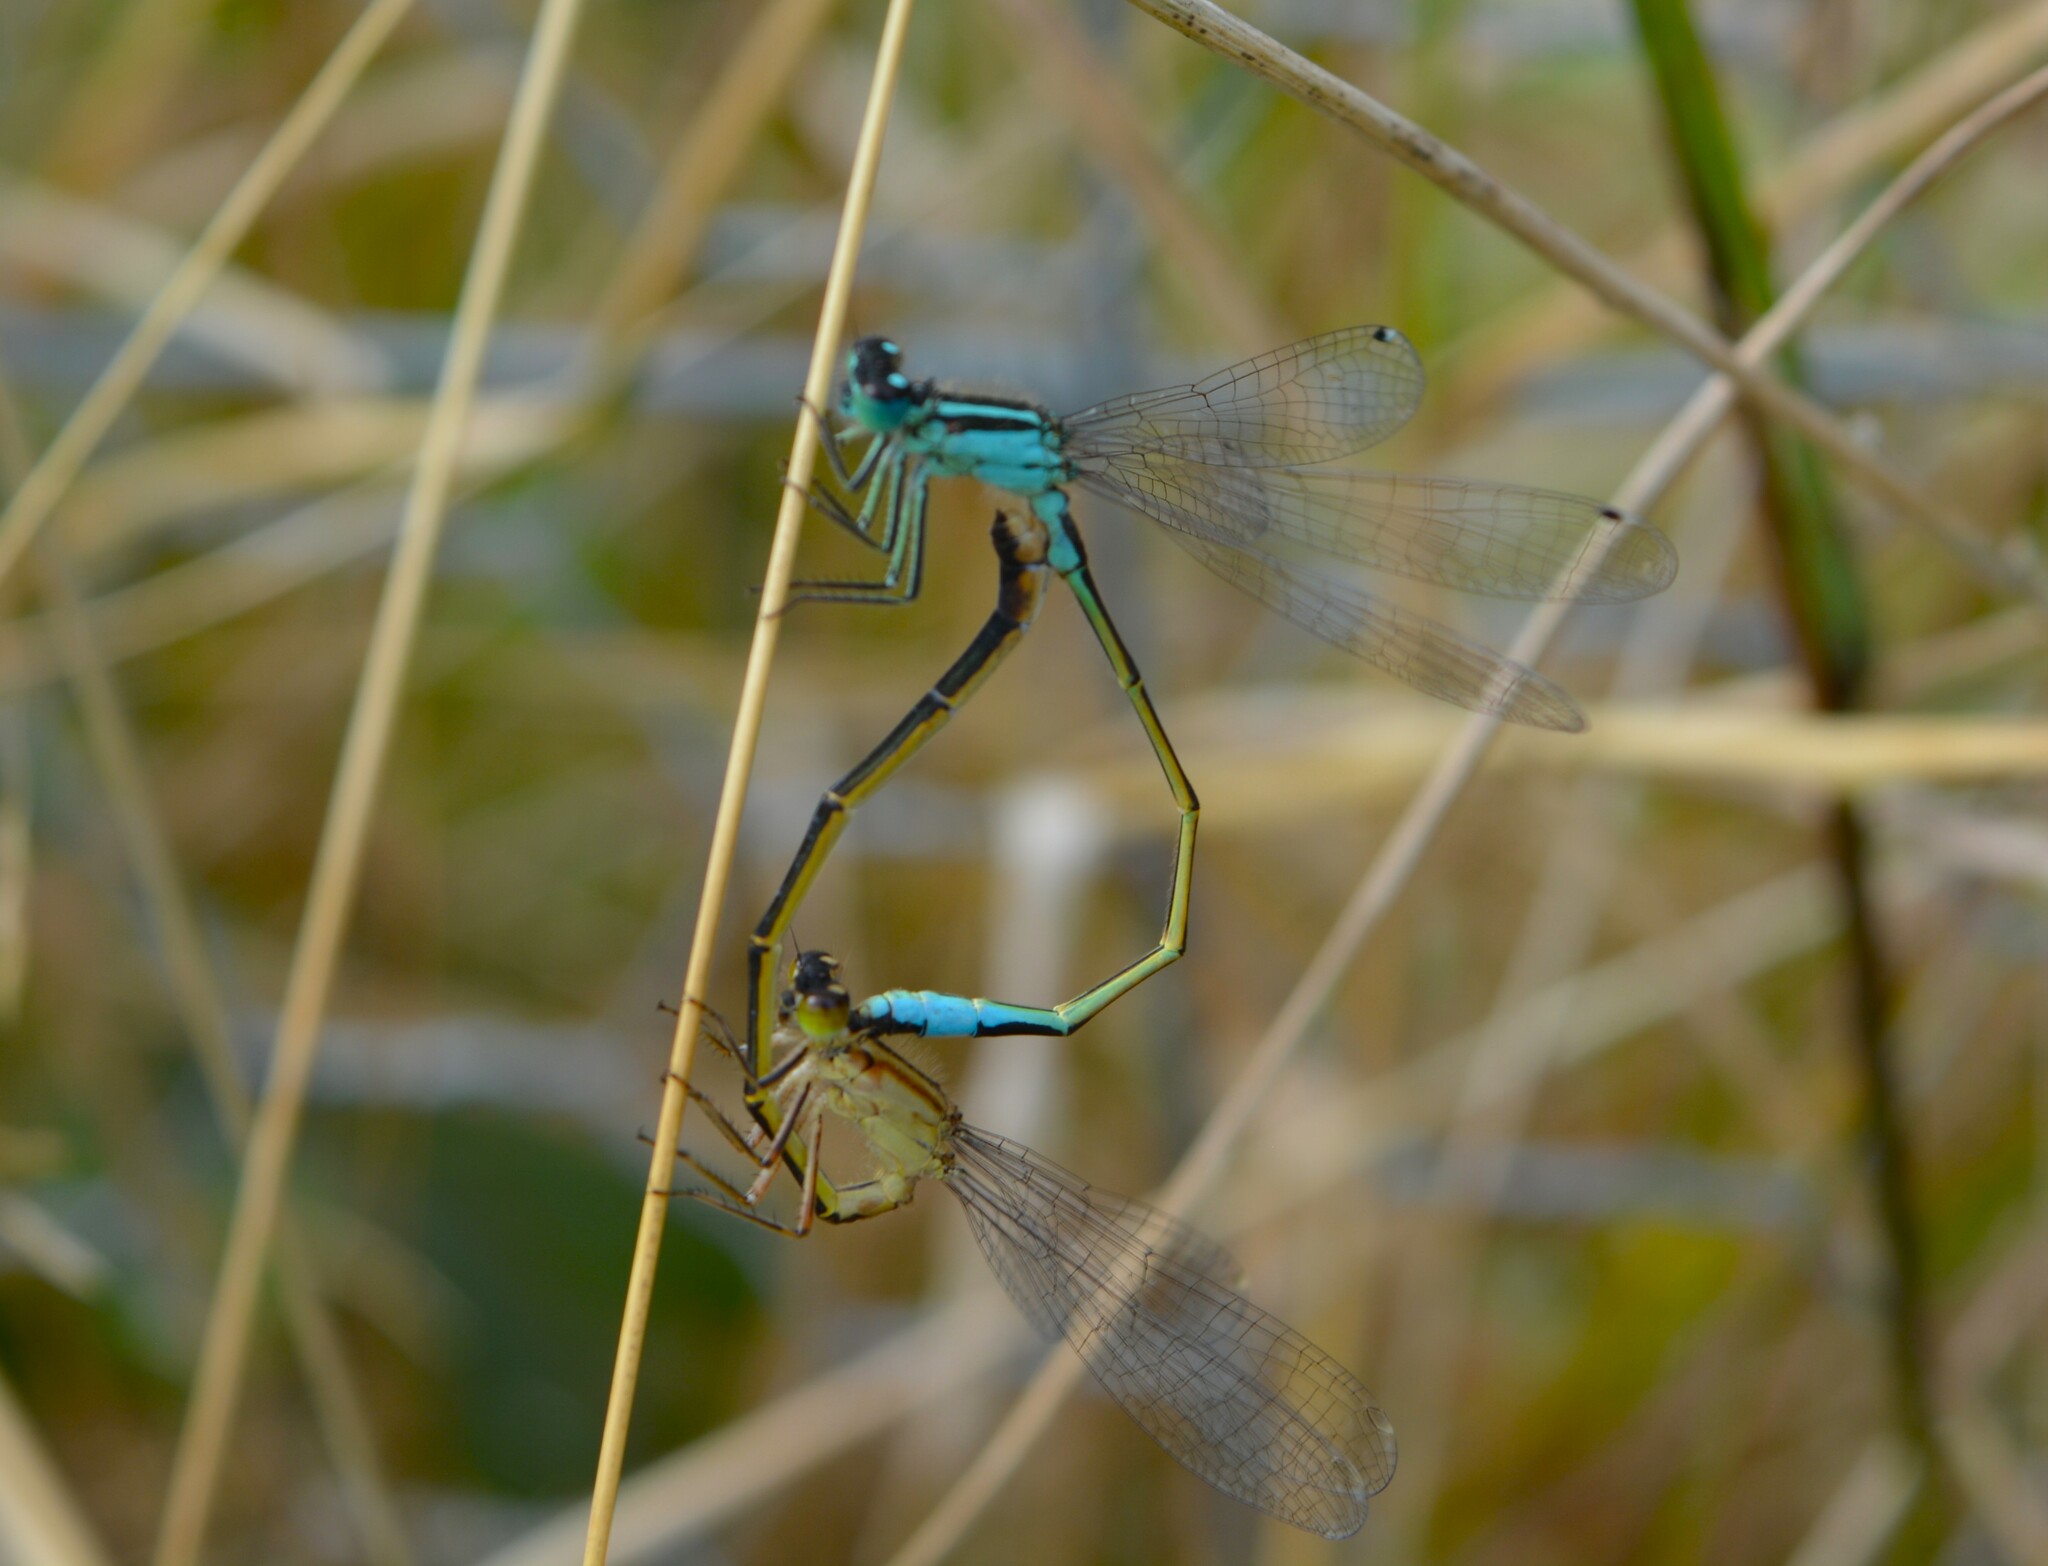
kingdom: Animalia
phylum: Arthropoda
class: Insecta
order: Odonata
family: Coenagrionidae
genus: Ischnura
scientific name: Ischnura elegans
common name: Blue-tailed damselfly
